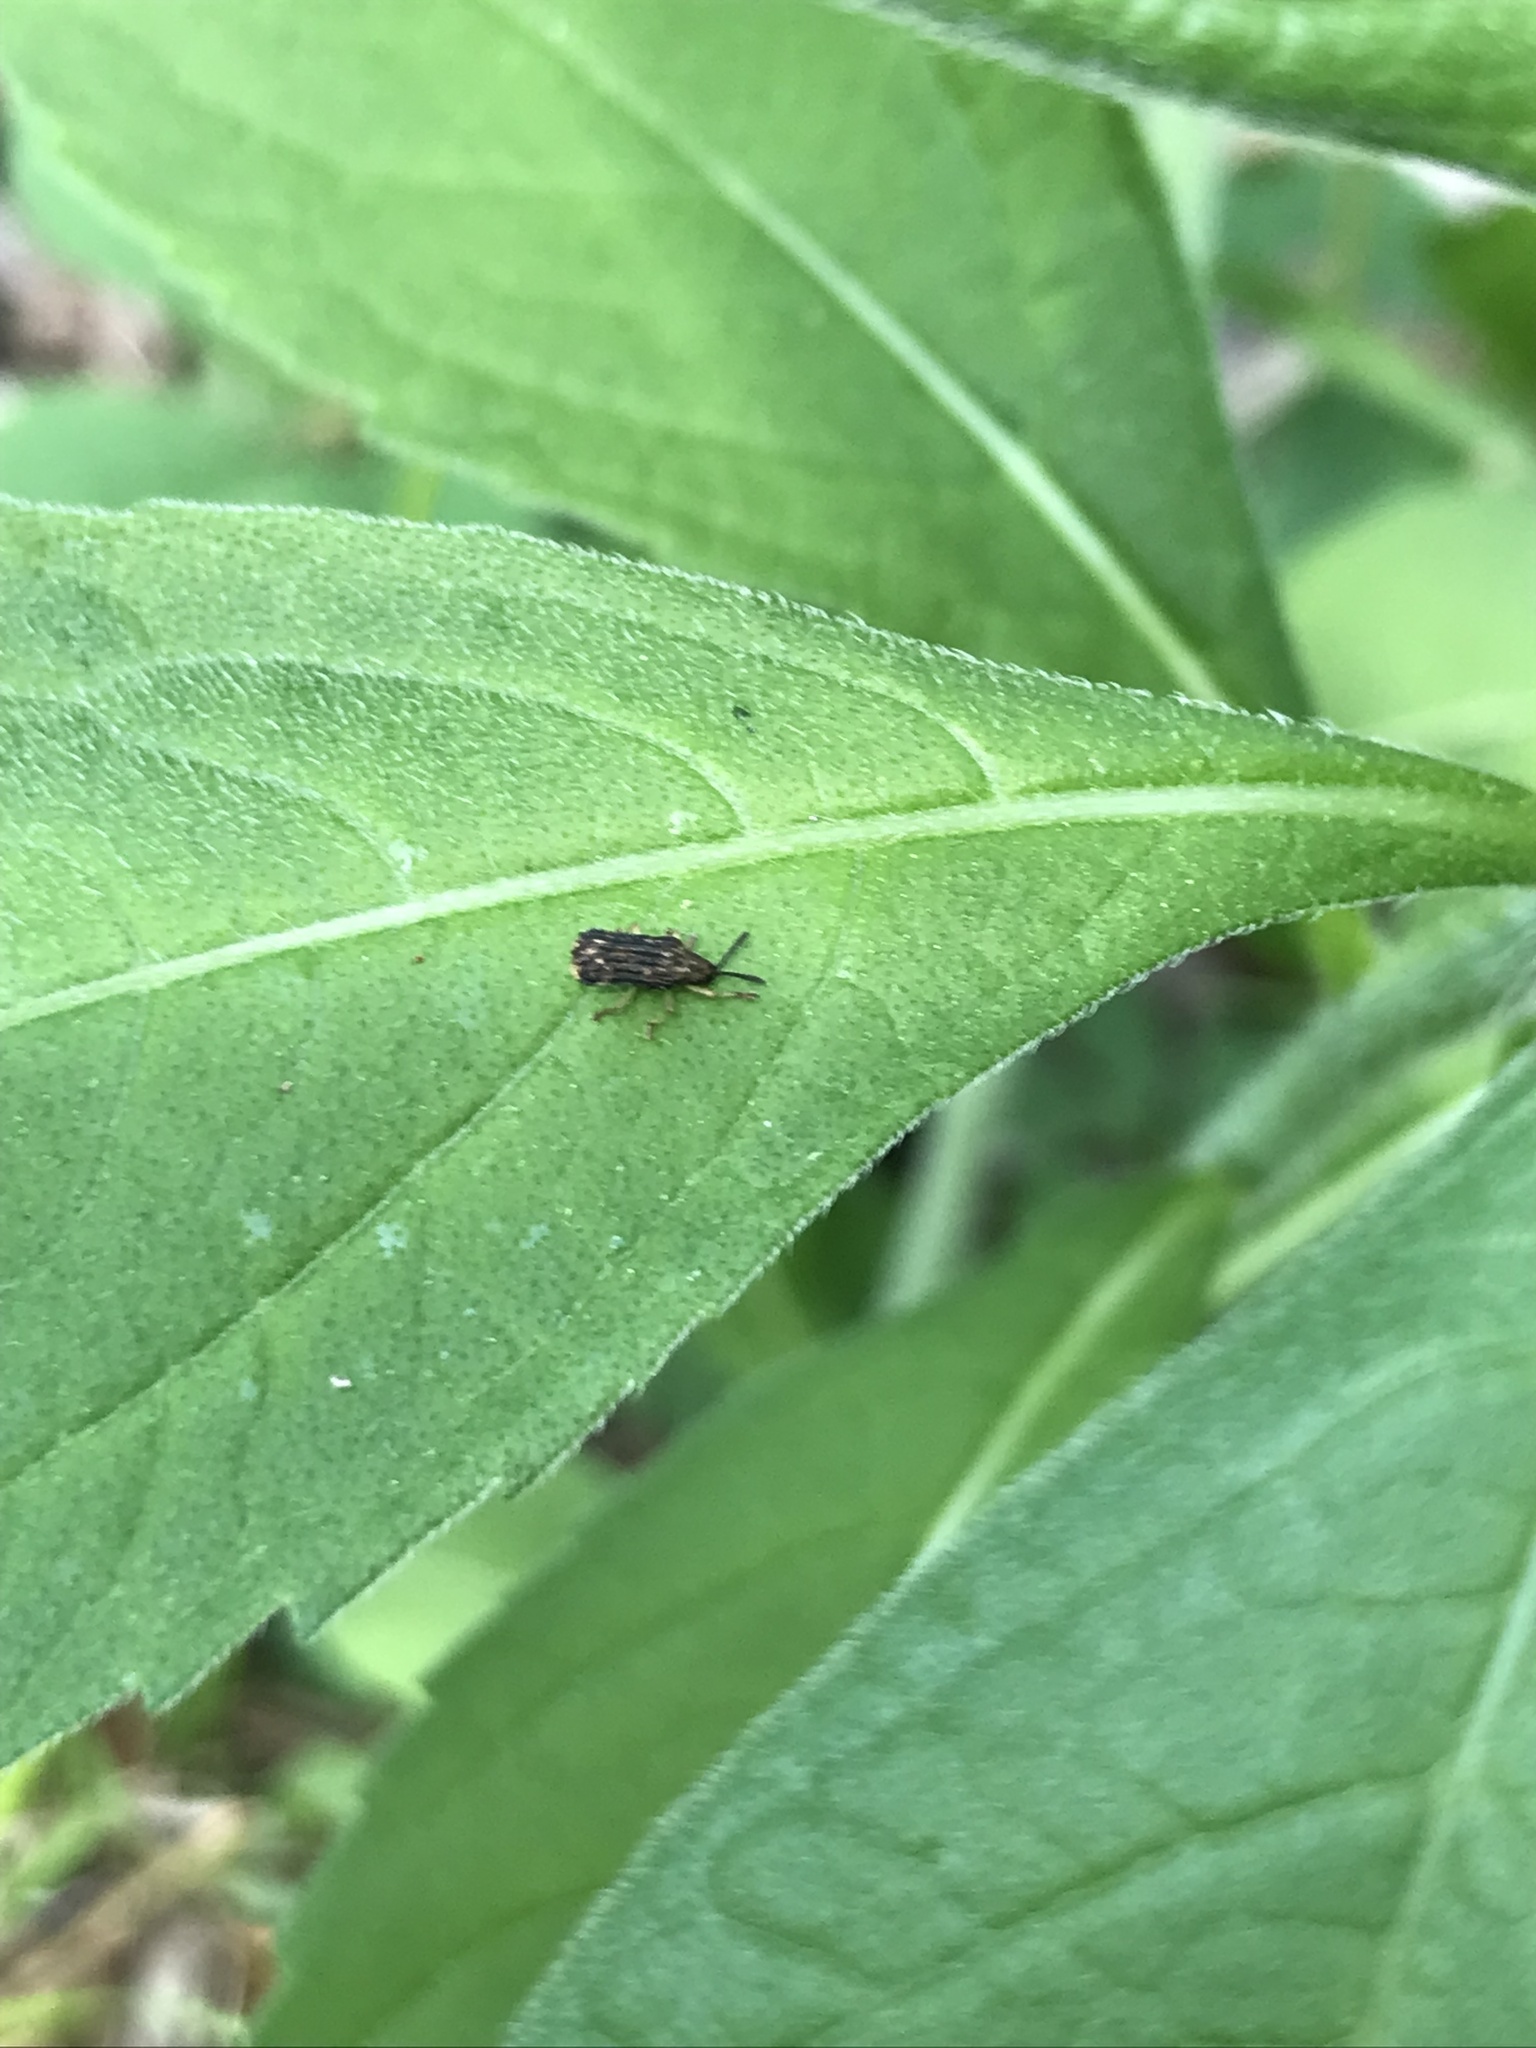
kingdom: Animalia
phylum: Arthropoda
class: Insecta
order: Coleoptera
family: Chrysomelidae
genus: Sumitrosis
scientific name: Sumitrosis inaequalis
